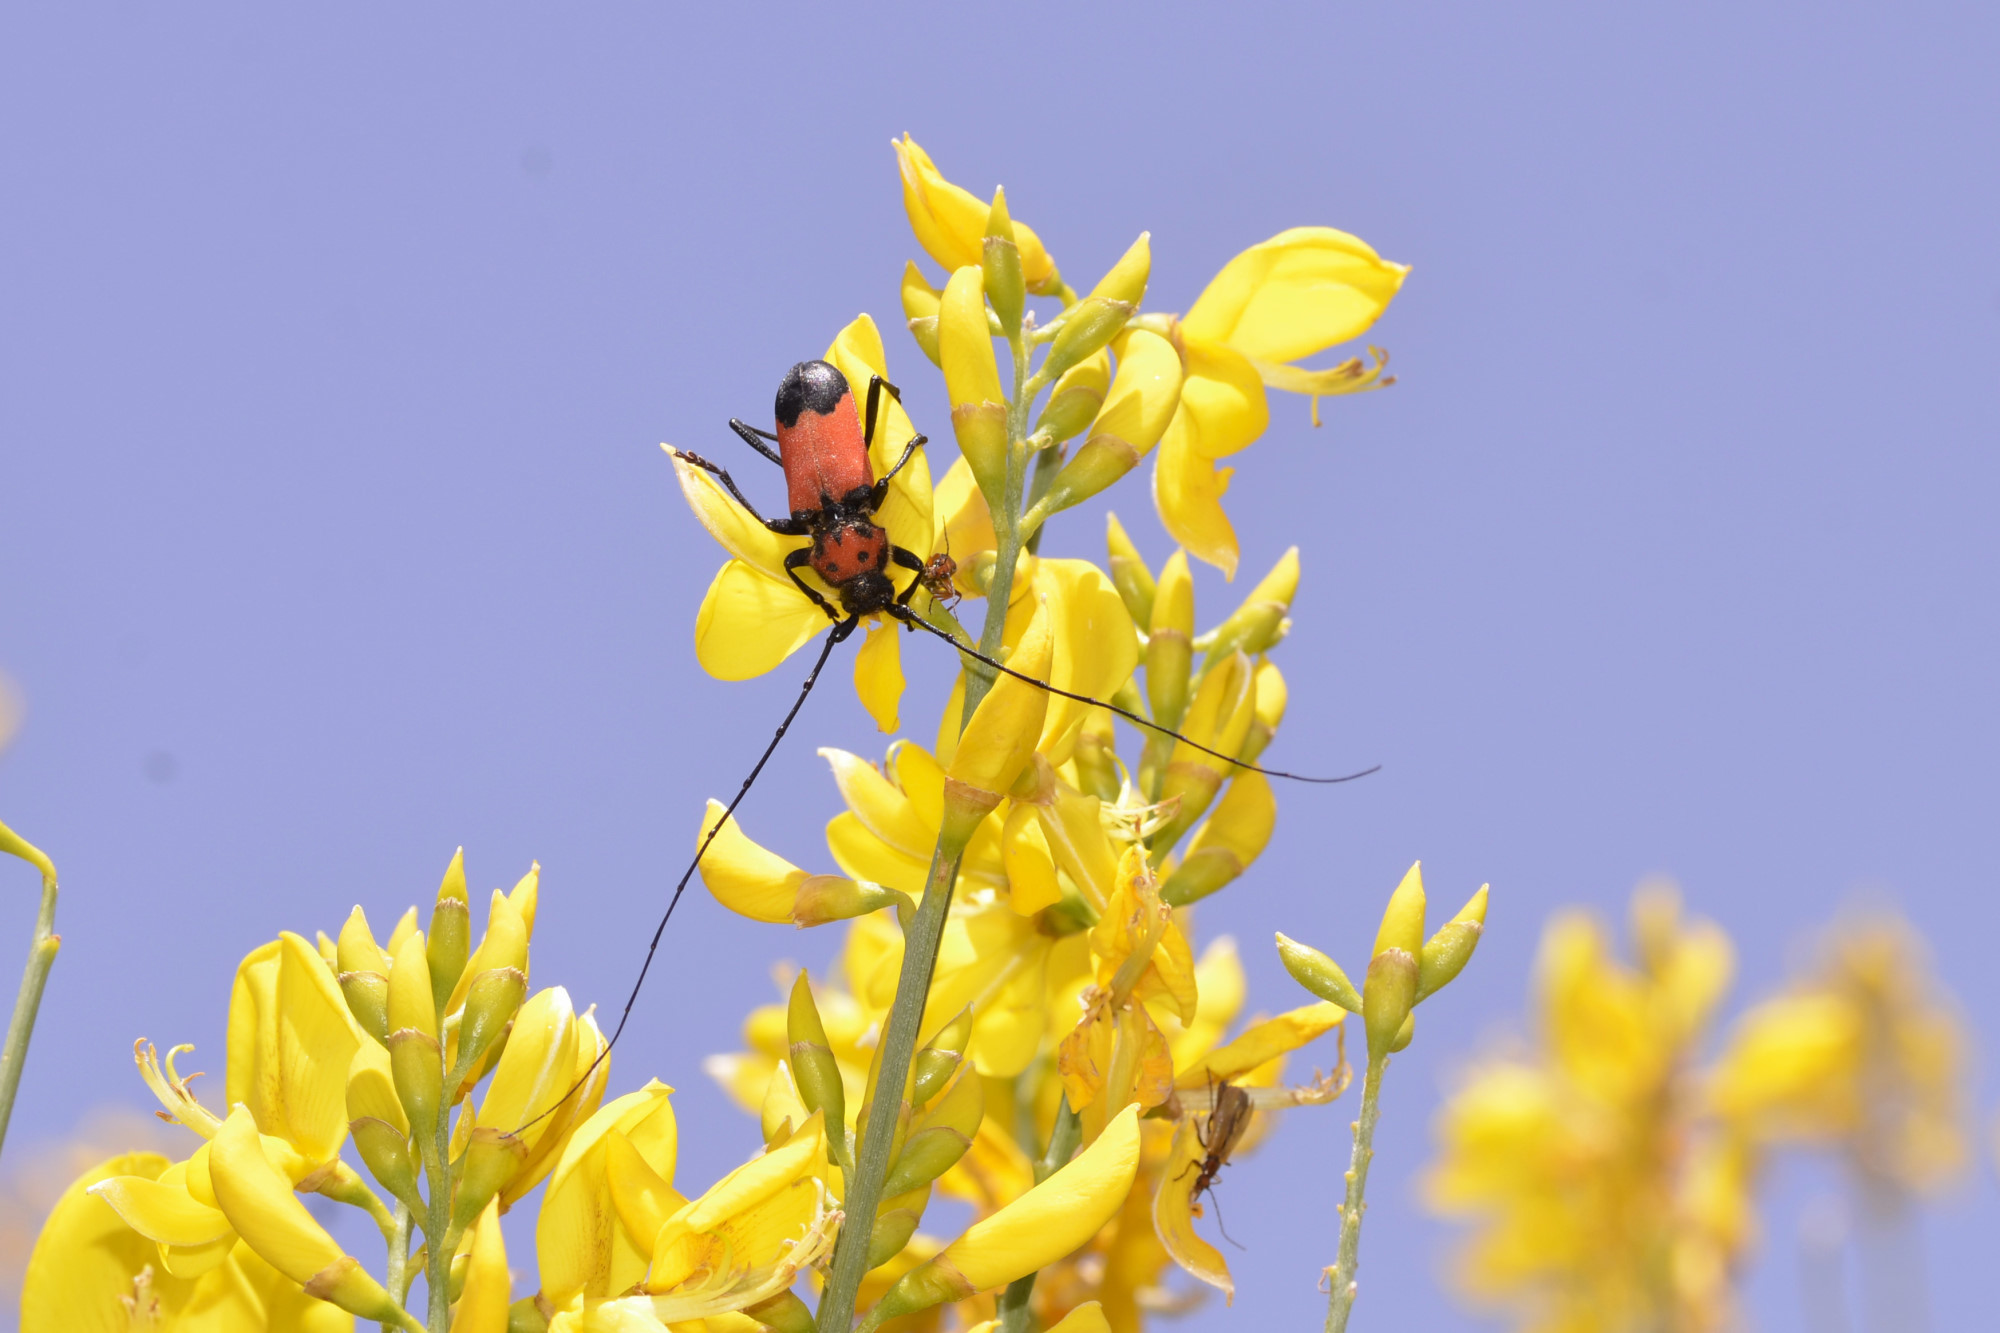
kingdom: Animalia
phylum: Arthropoda
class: Insecta
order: Coleoptera
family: Cerambycidae
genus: Purpuricenus
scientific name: Purpuricenus desfontainii
